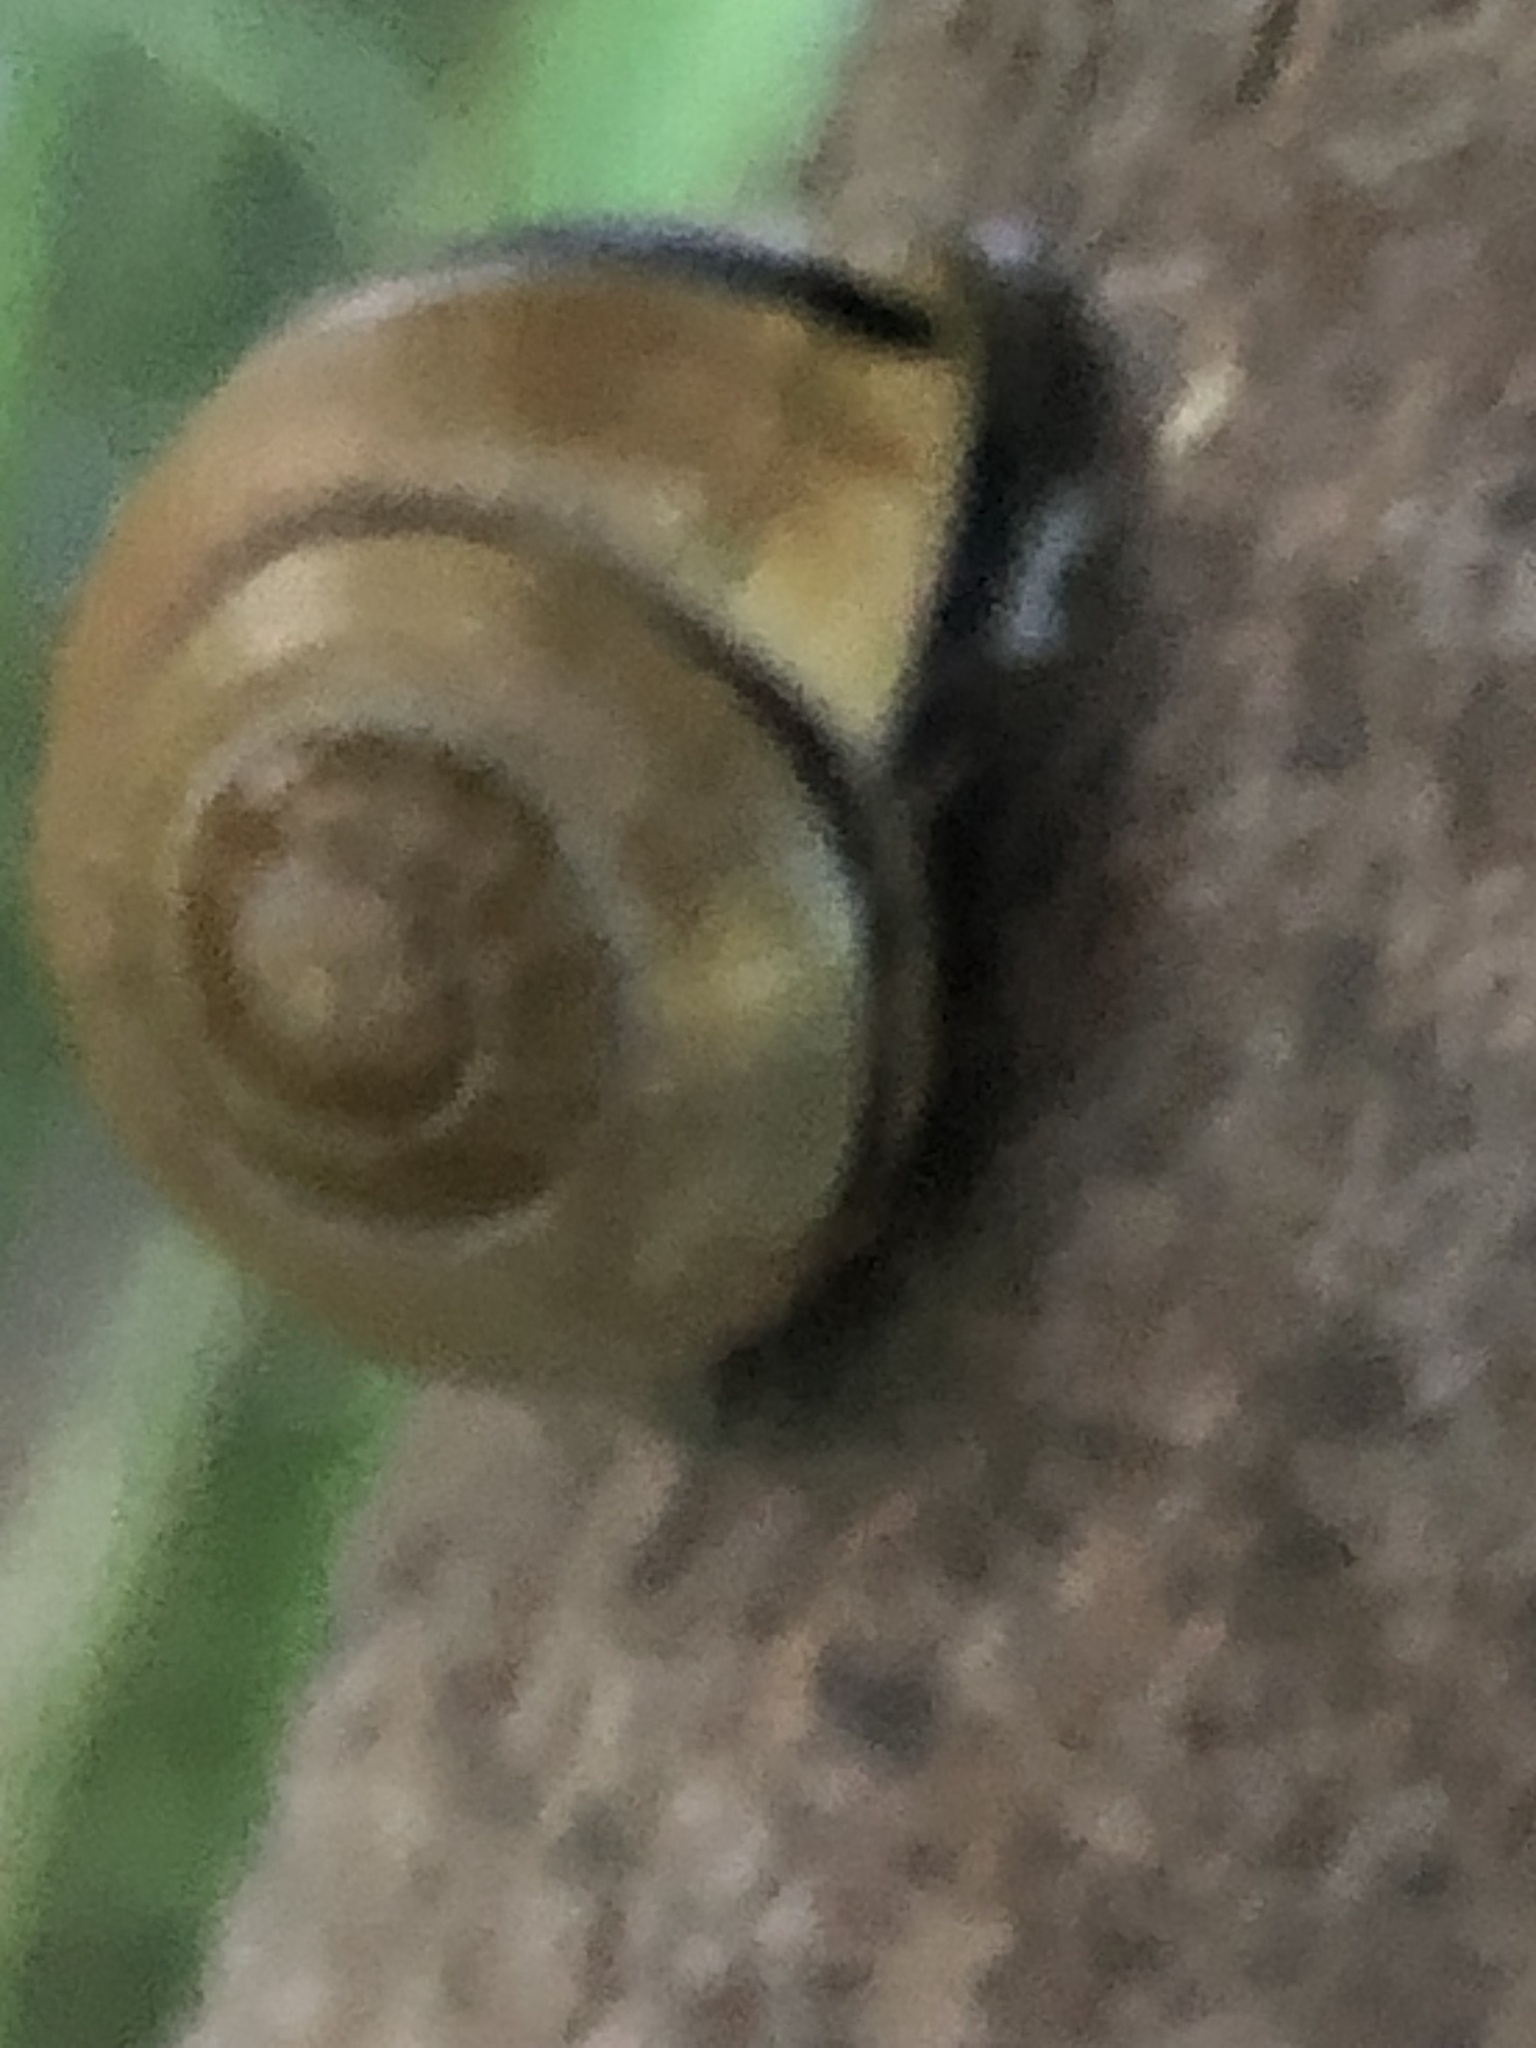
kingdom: Animalia
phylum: Mollusca
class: Gastropoda
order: Stylommatophora
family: Helicidae
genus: Cepaea
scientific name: Cepaea nemoralis
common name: Grovesnail
